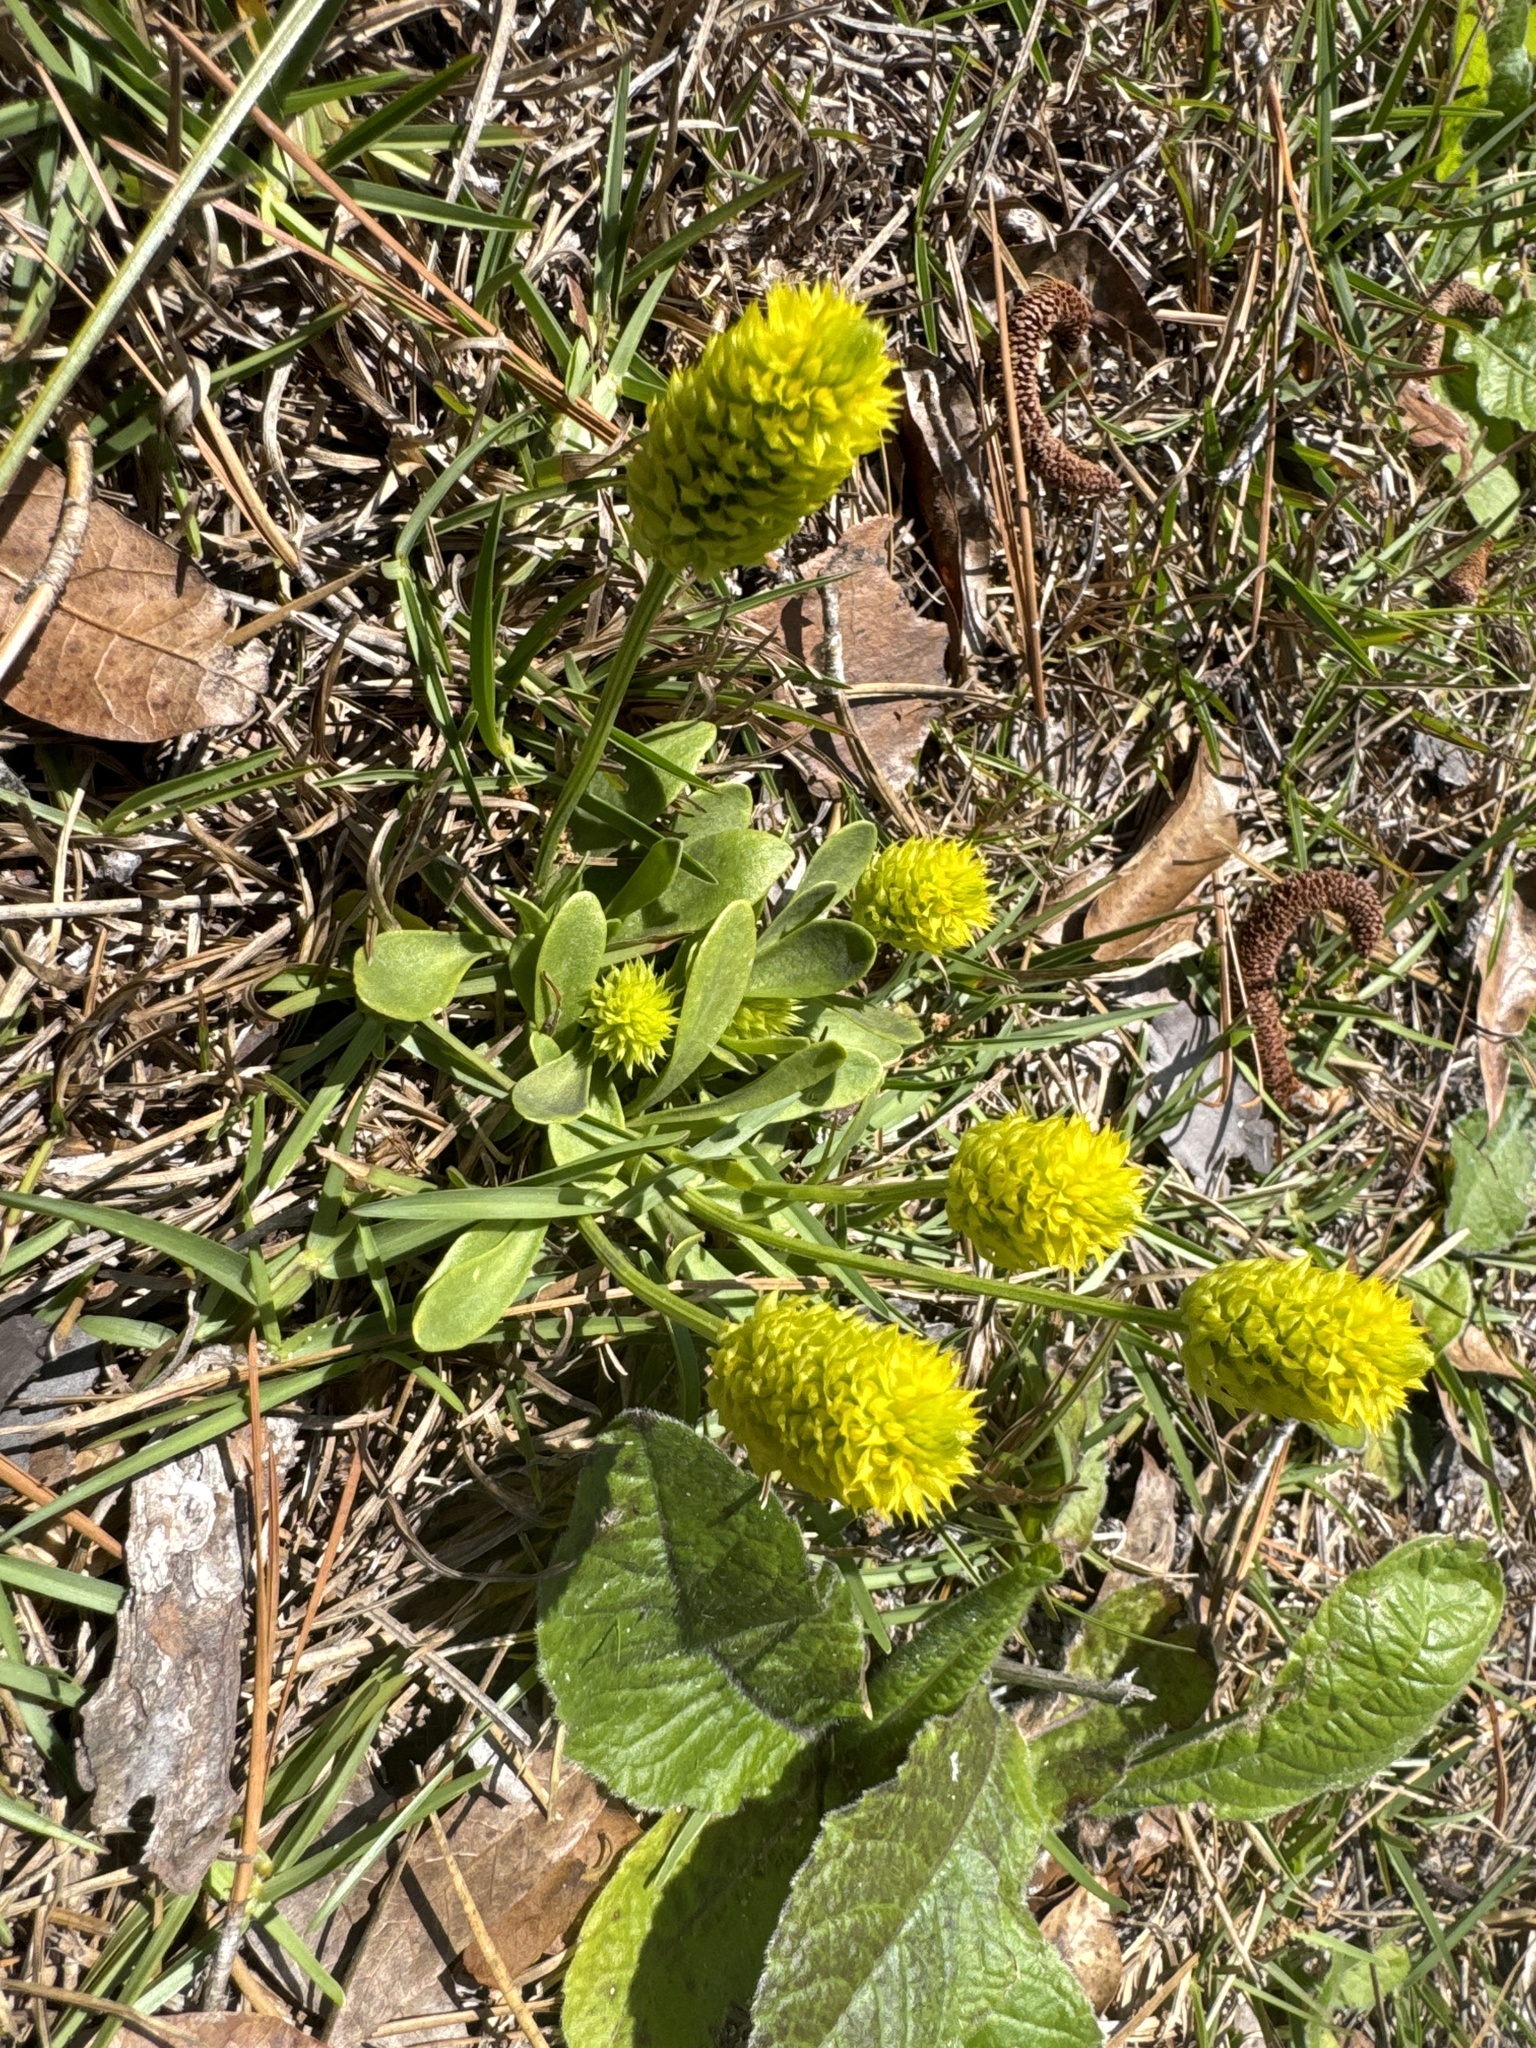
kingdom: Plantae
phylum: Tracheophyta
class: Magnoliopsida
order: Fabales
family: Polygalaceae
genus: Polygala
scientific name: Polygala nana
